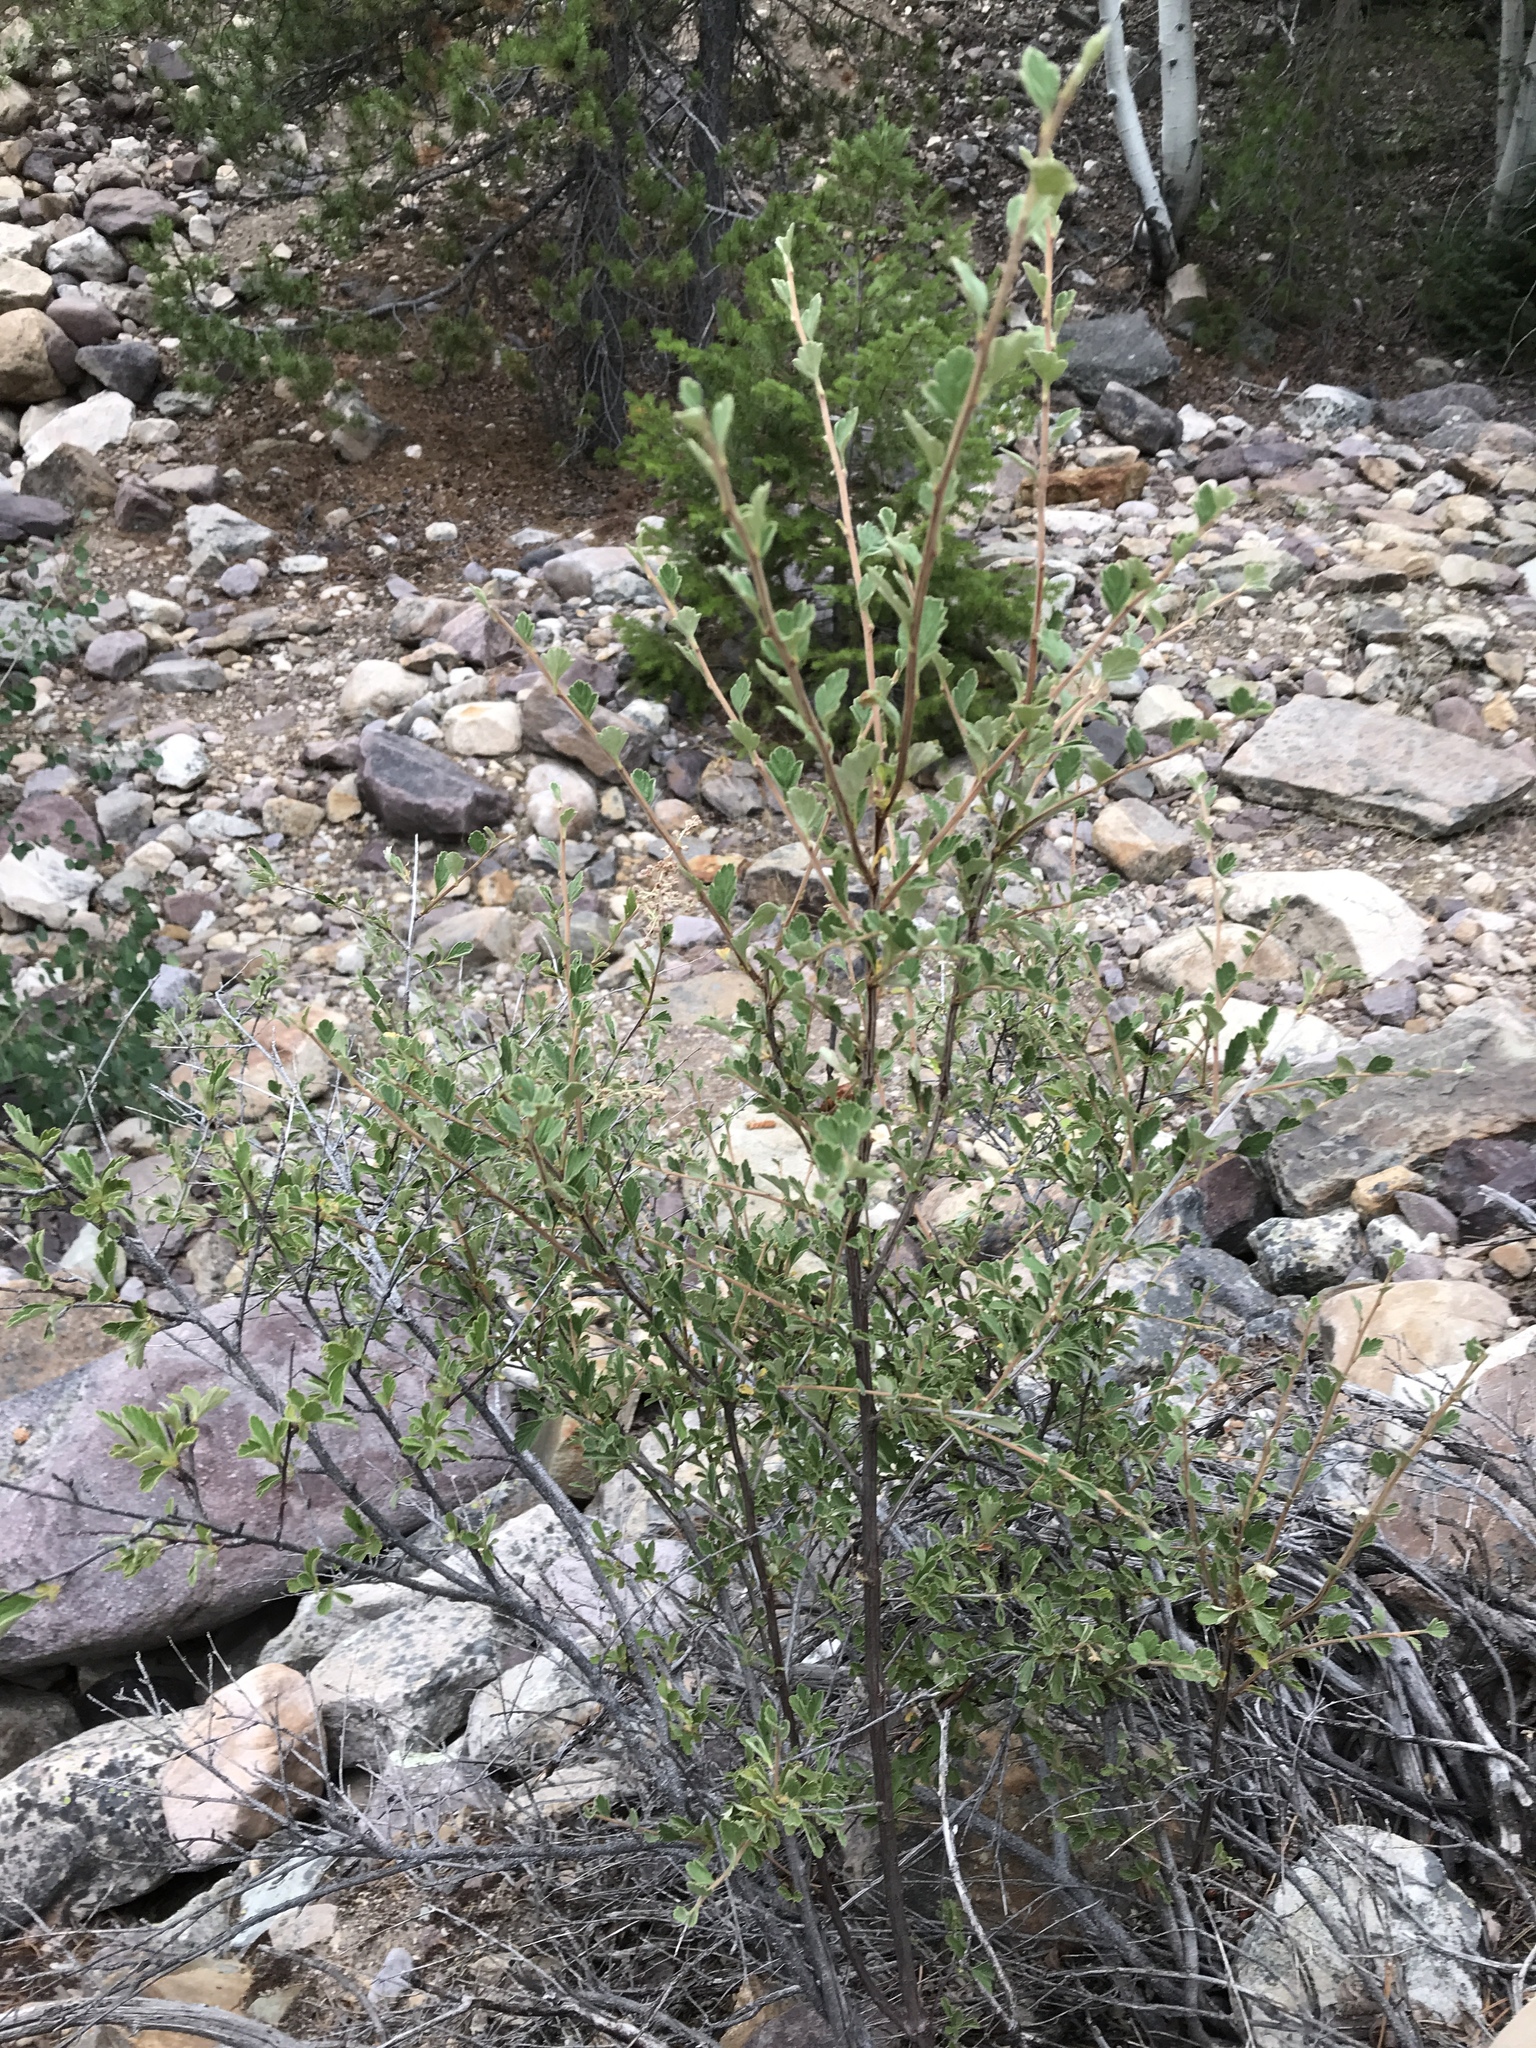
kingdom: Plantae
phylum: Tracheophyta
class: Magnoliopsida
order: Rosales
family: Rosaceae
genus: Cercocarpus
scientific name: Cercocarpus montanus
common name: Alder-leaf cercocarpus
